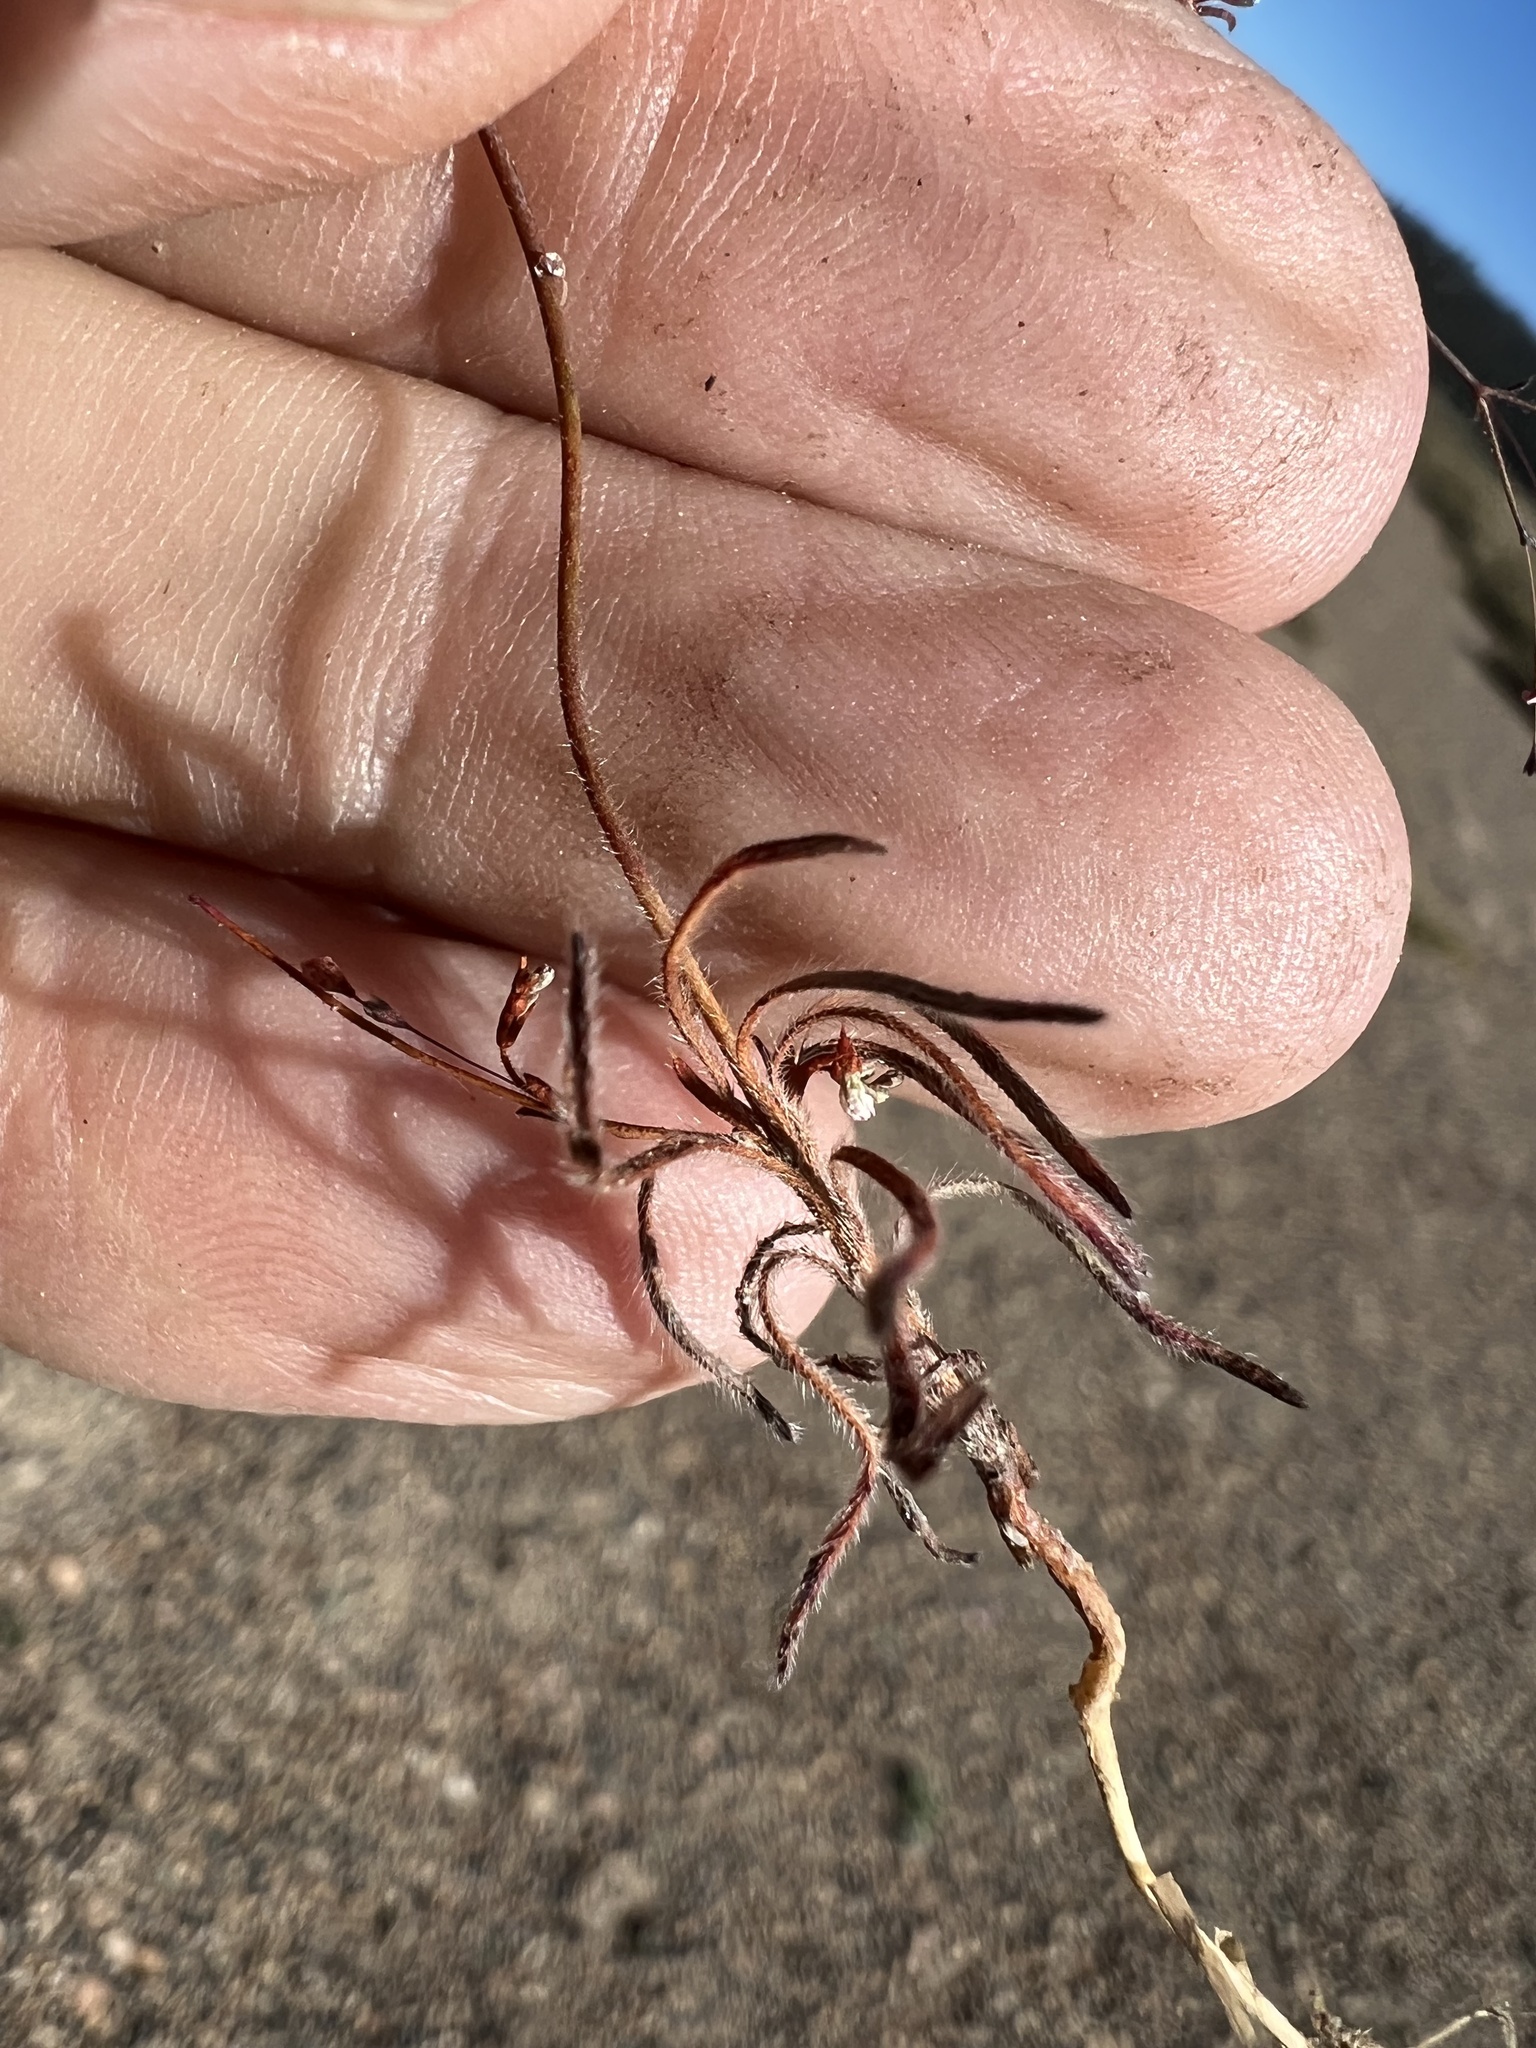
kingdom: Plantae
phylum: Tracheophyta
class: Magnoliopsida
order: Caryophyllales
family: Polygonaceae
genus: Eriogonum
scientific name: Eriogonum spergulinum
